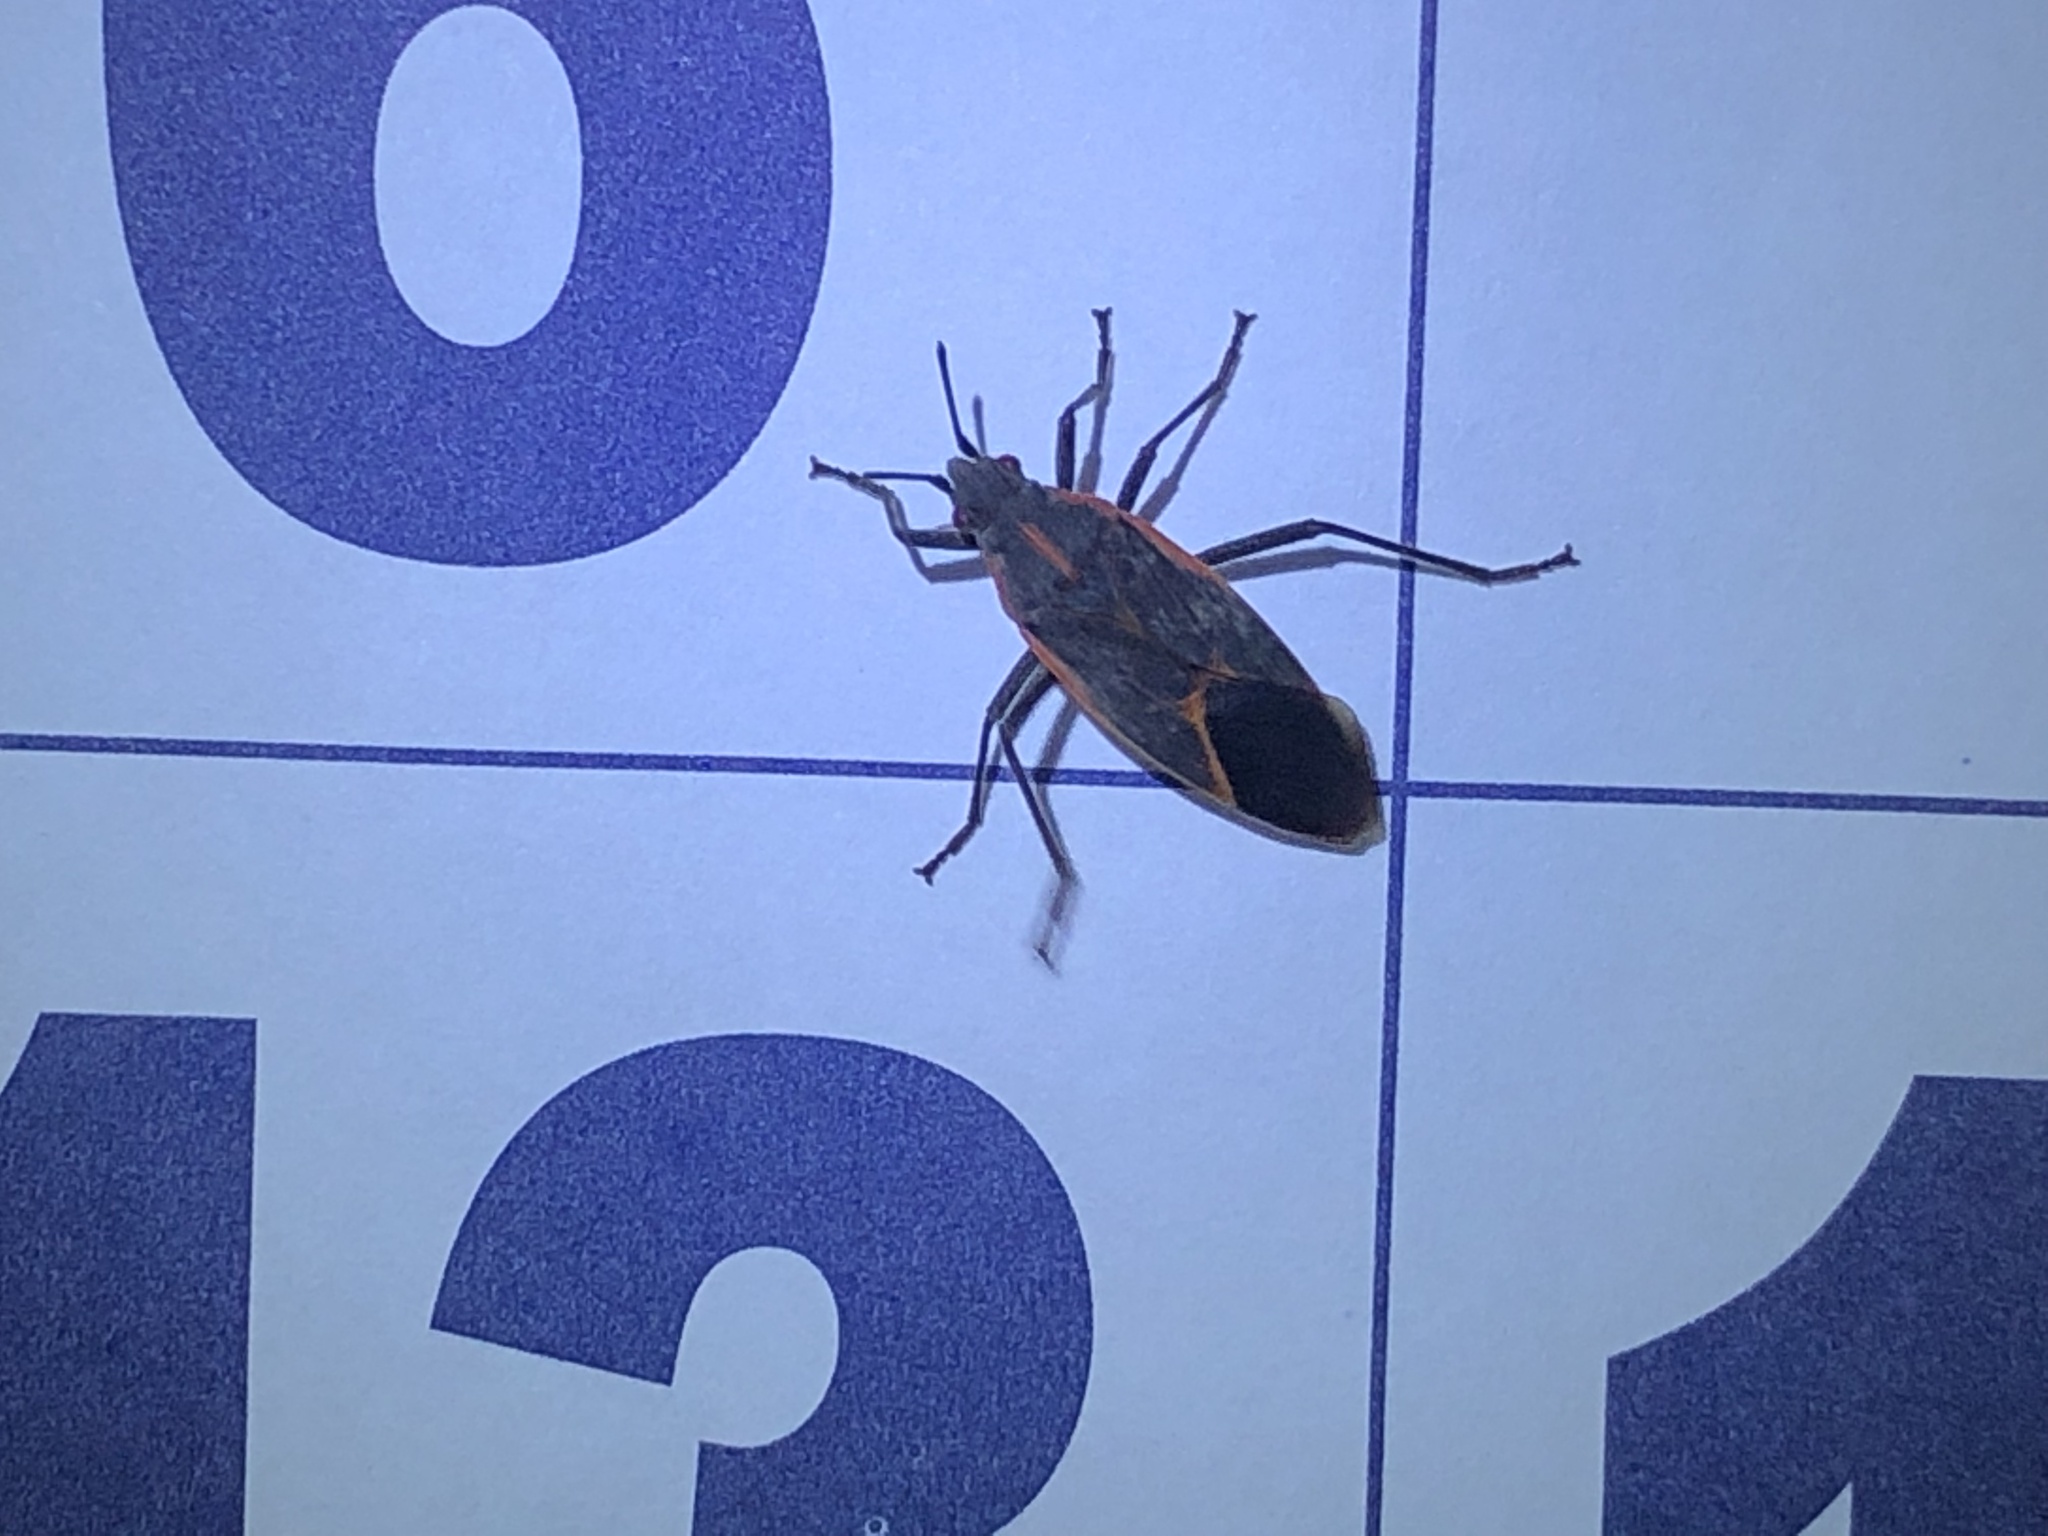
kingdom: Animalia
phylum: Arthropoda
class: Insecta
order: Hemiptera
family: Rhopalidae
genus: Boisea
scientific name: Boisea trivittata
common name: Boxelder bug
